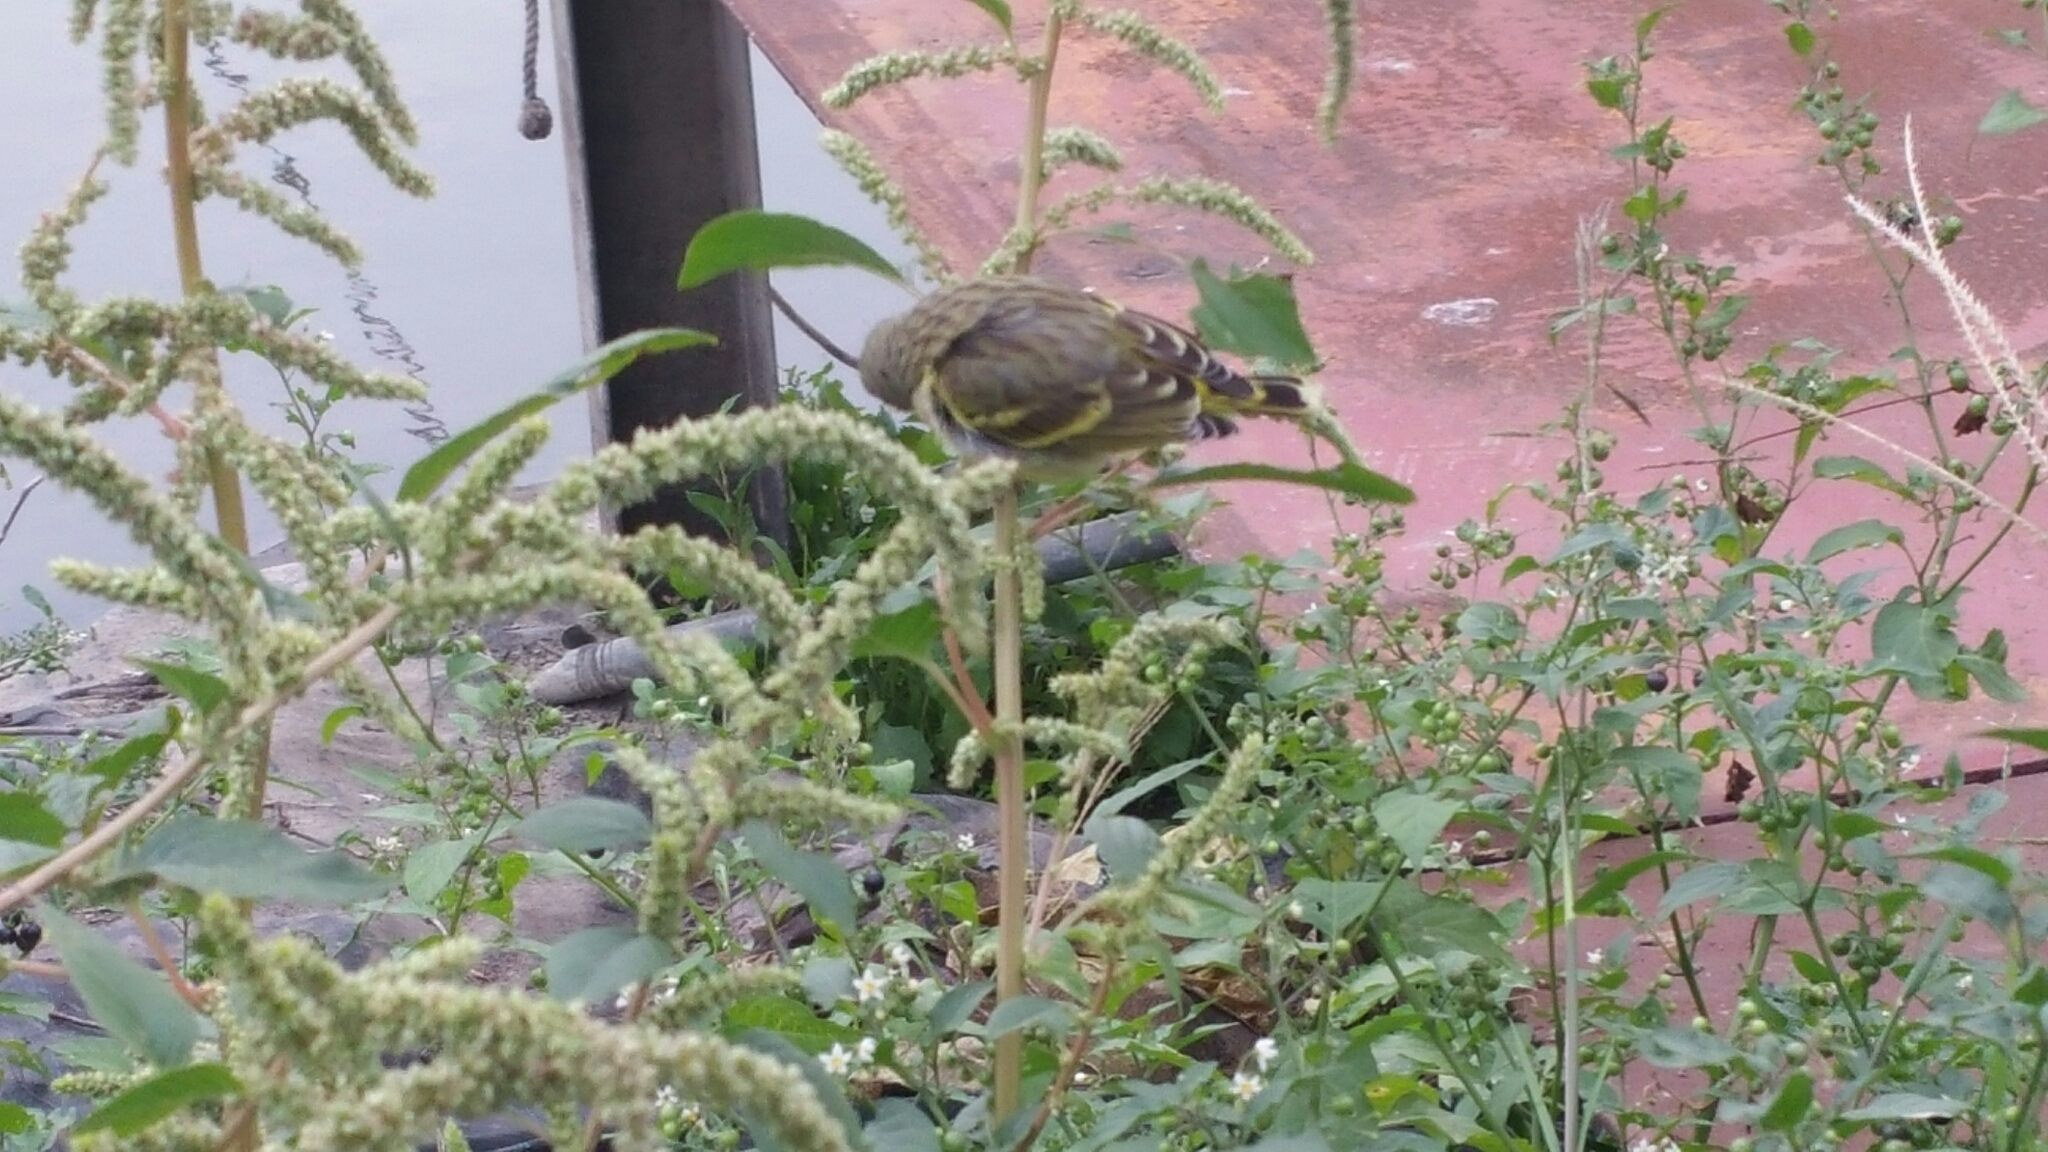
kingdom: Animalia
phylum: Chordata
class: Aves
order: Passeriformes
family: Fringillidae
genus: Crithagra
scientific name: Crithagra mozambica
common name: Yellow-fronted canary
